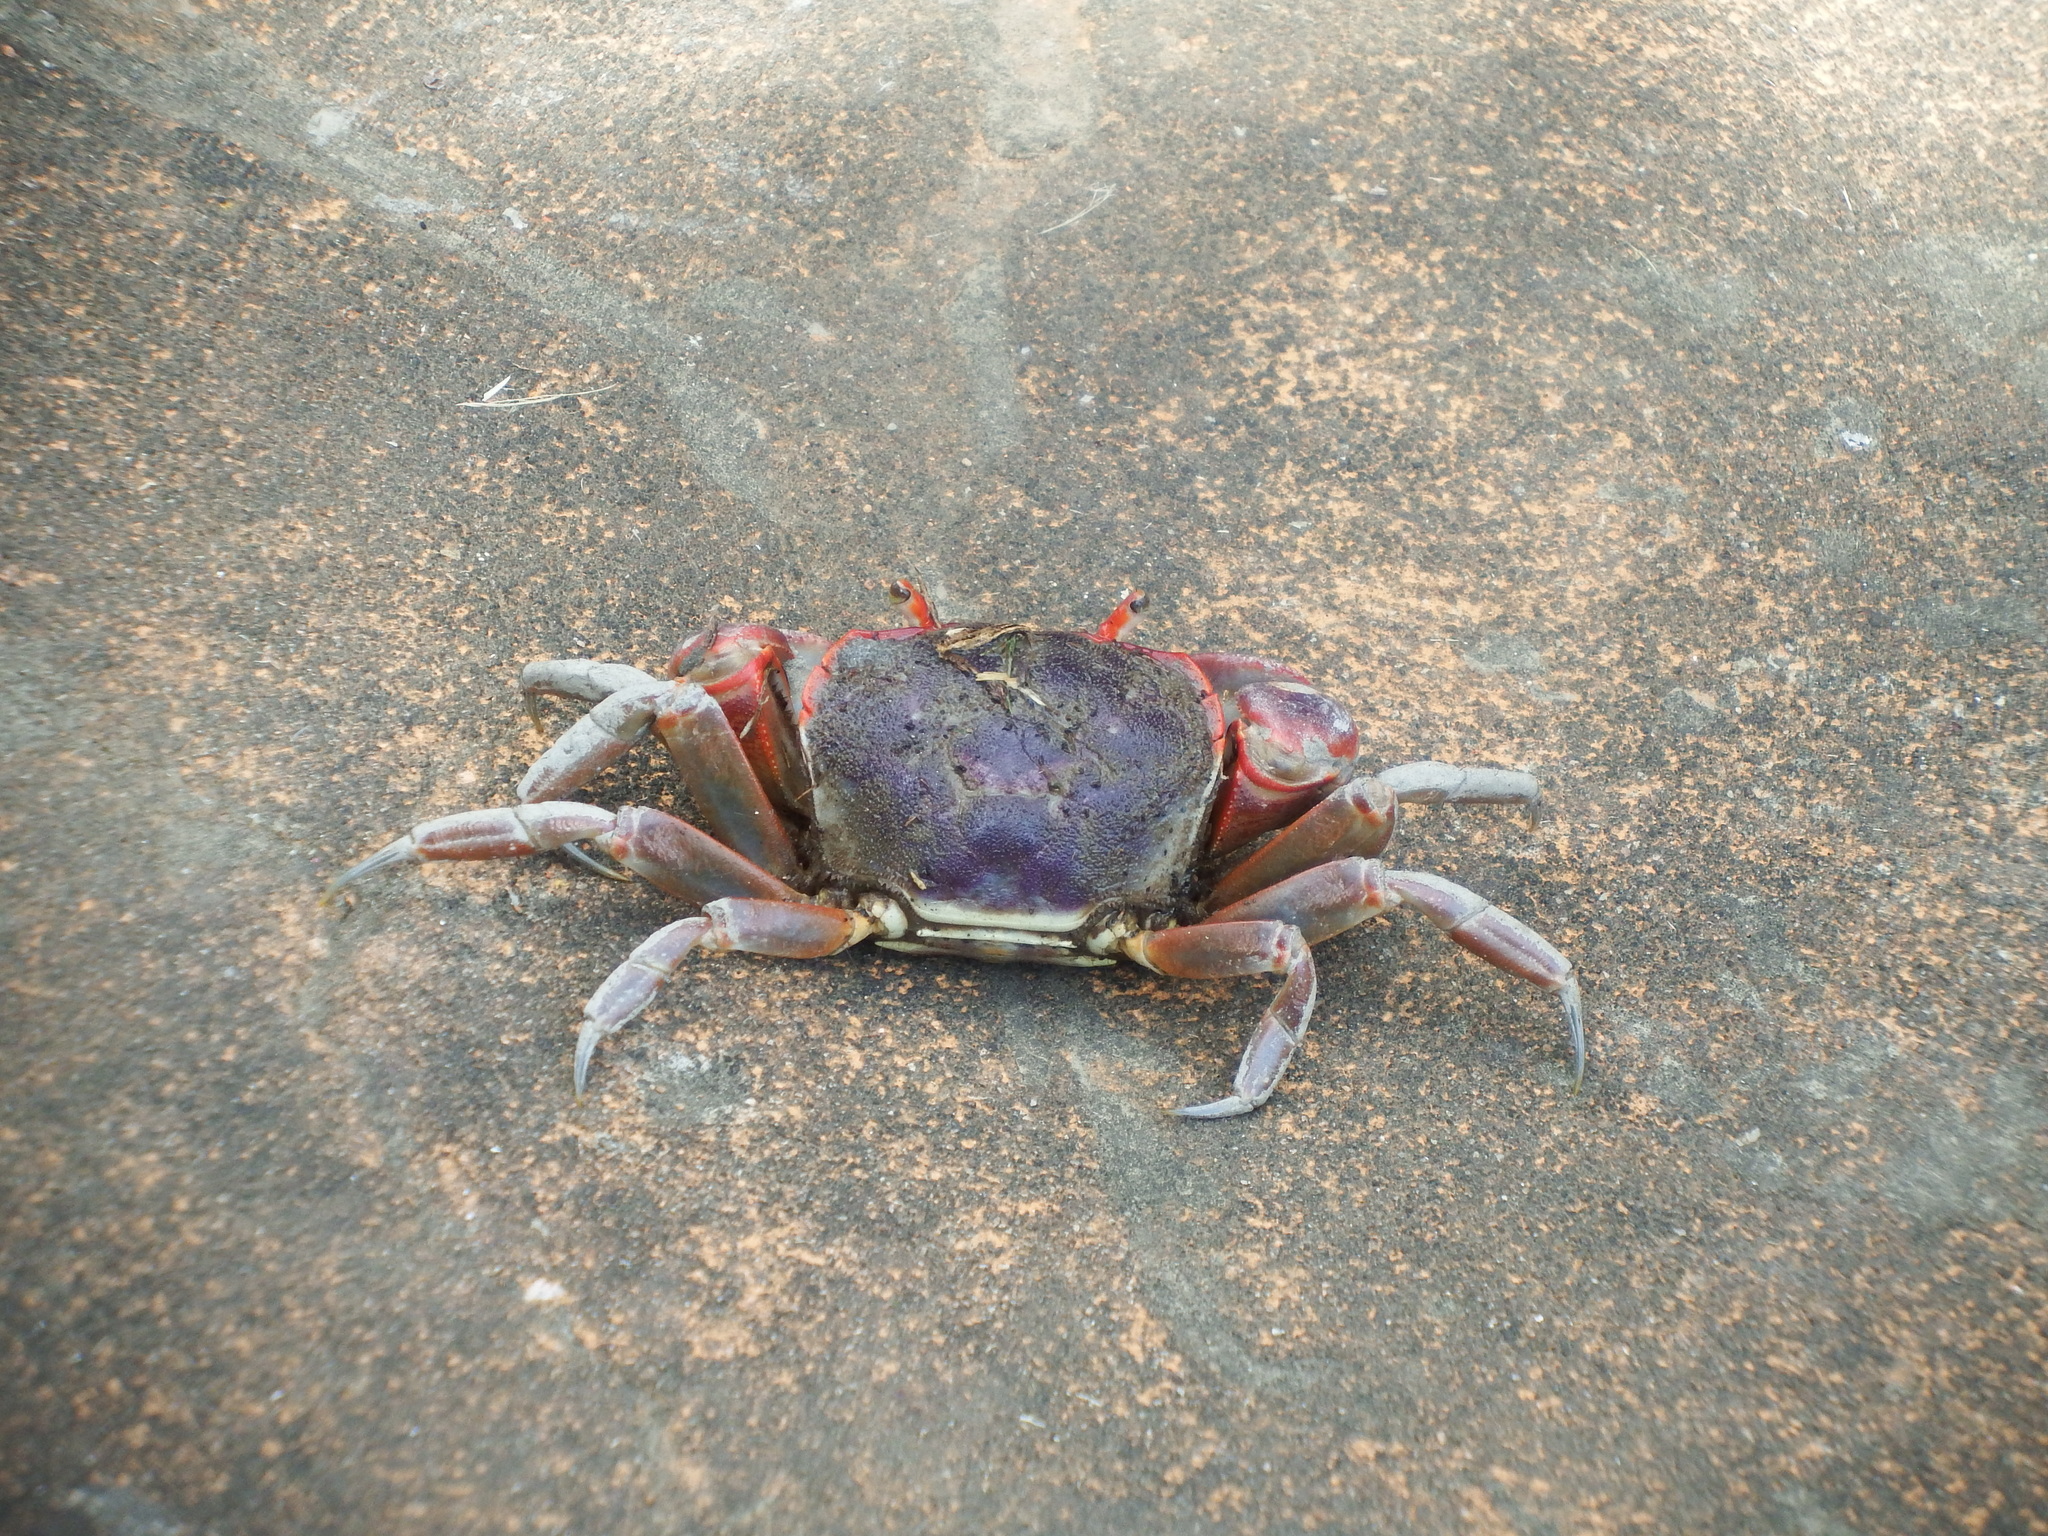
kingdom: Animalia
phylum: Arthropoda
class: Malacostraca
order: Decapoda
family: Varunidae
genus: Chasmagnathus
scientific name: Chasmagnathus convexus
